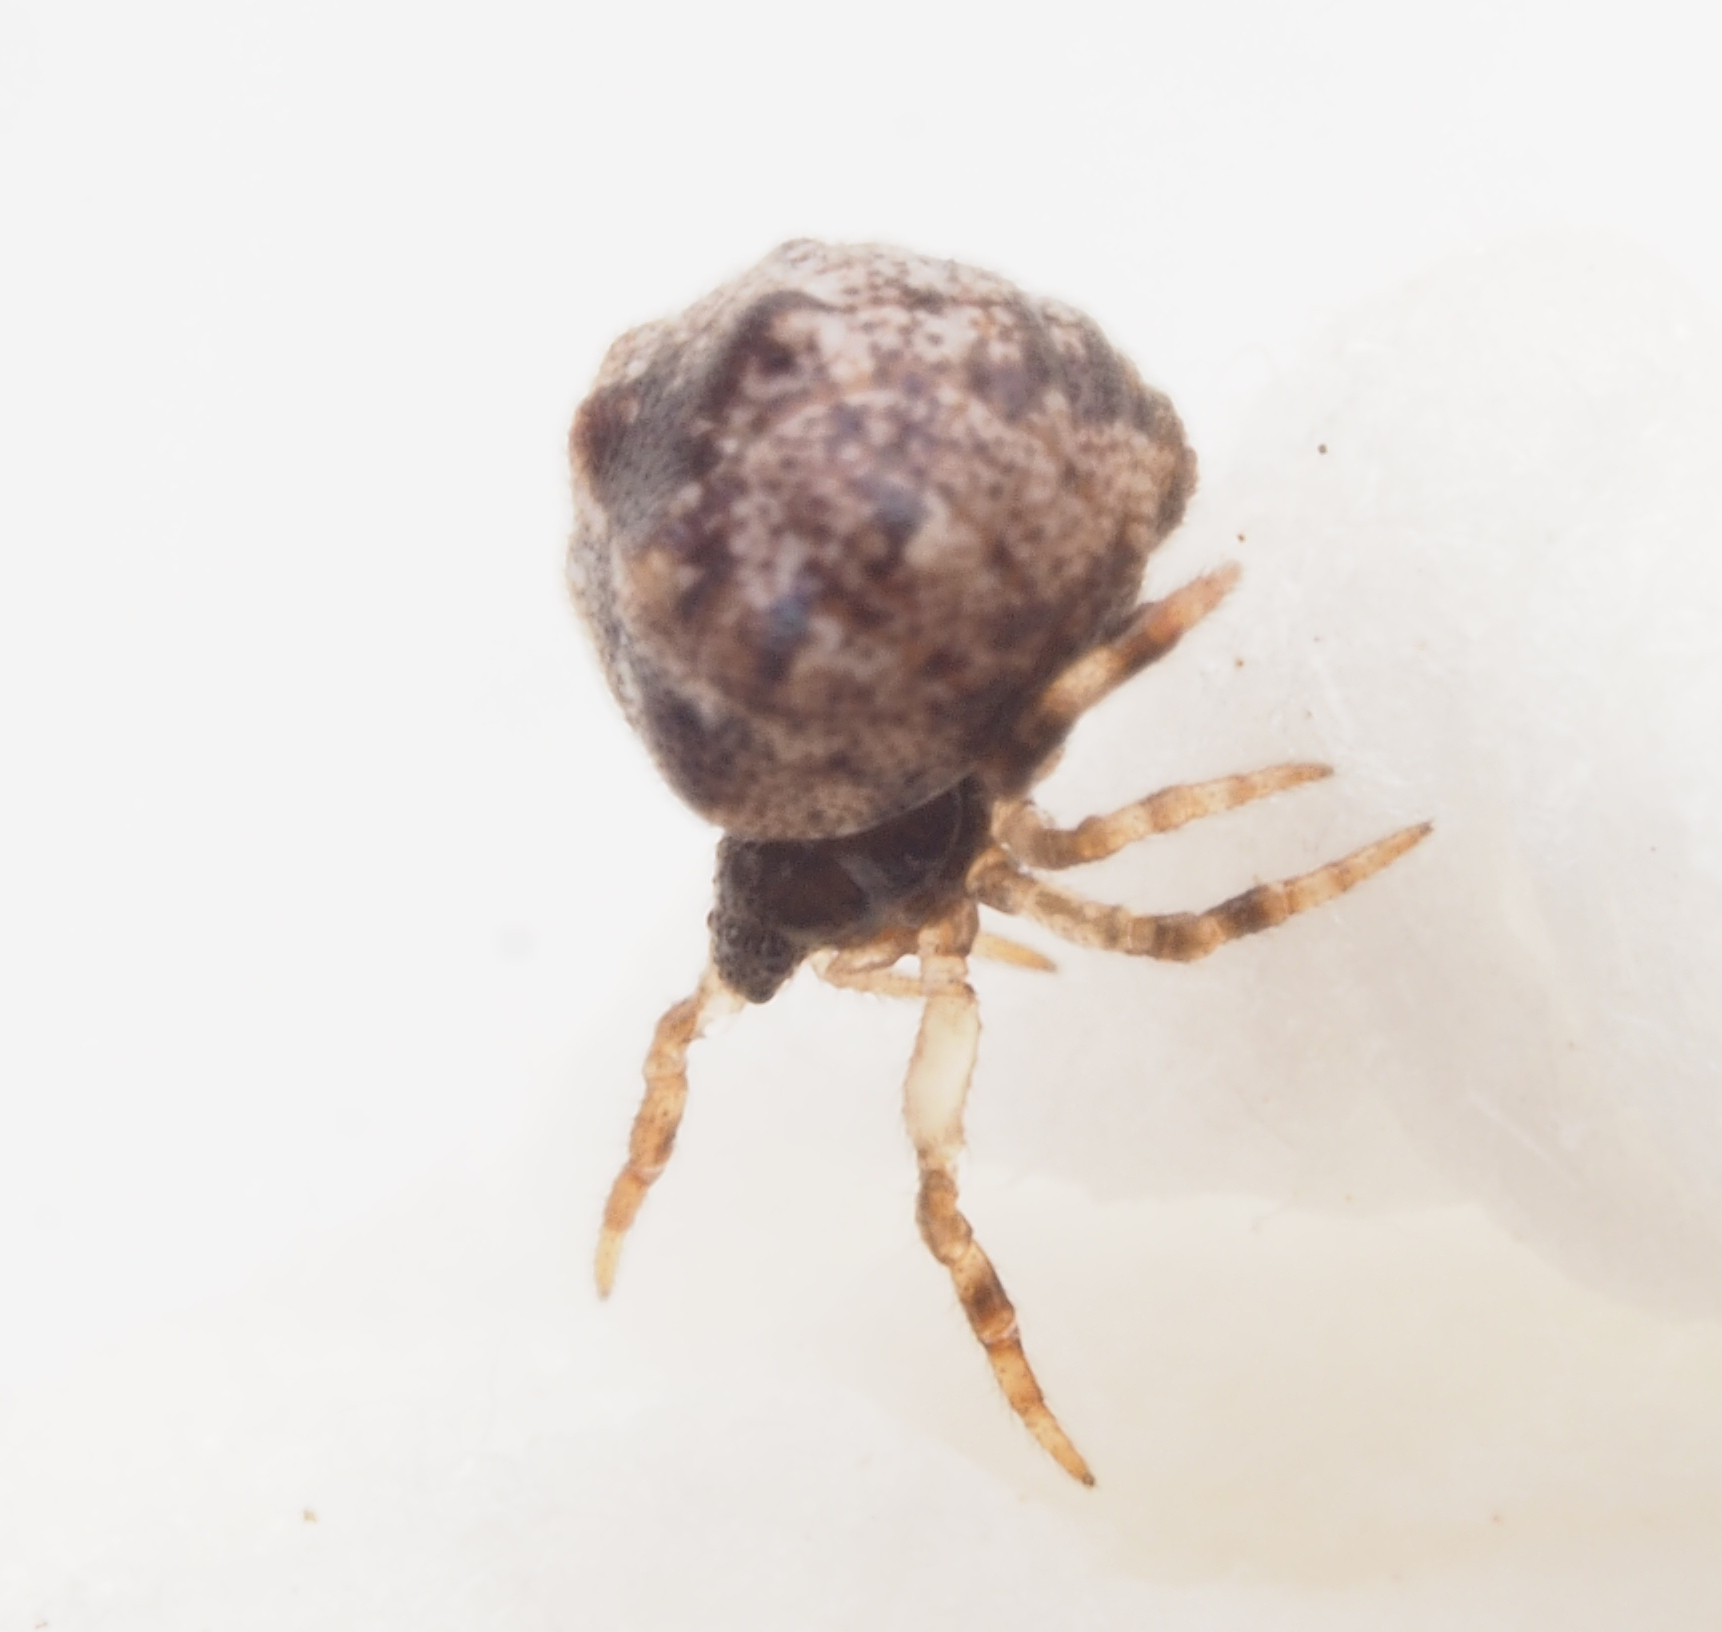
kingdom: Animalia
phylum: Arthropoda
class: Arachnida
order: Araneae
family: Theridiidae
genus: Phoroncidia
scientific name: Phoroncidia
